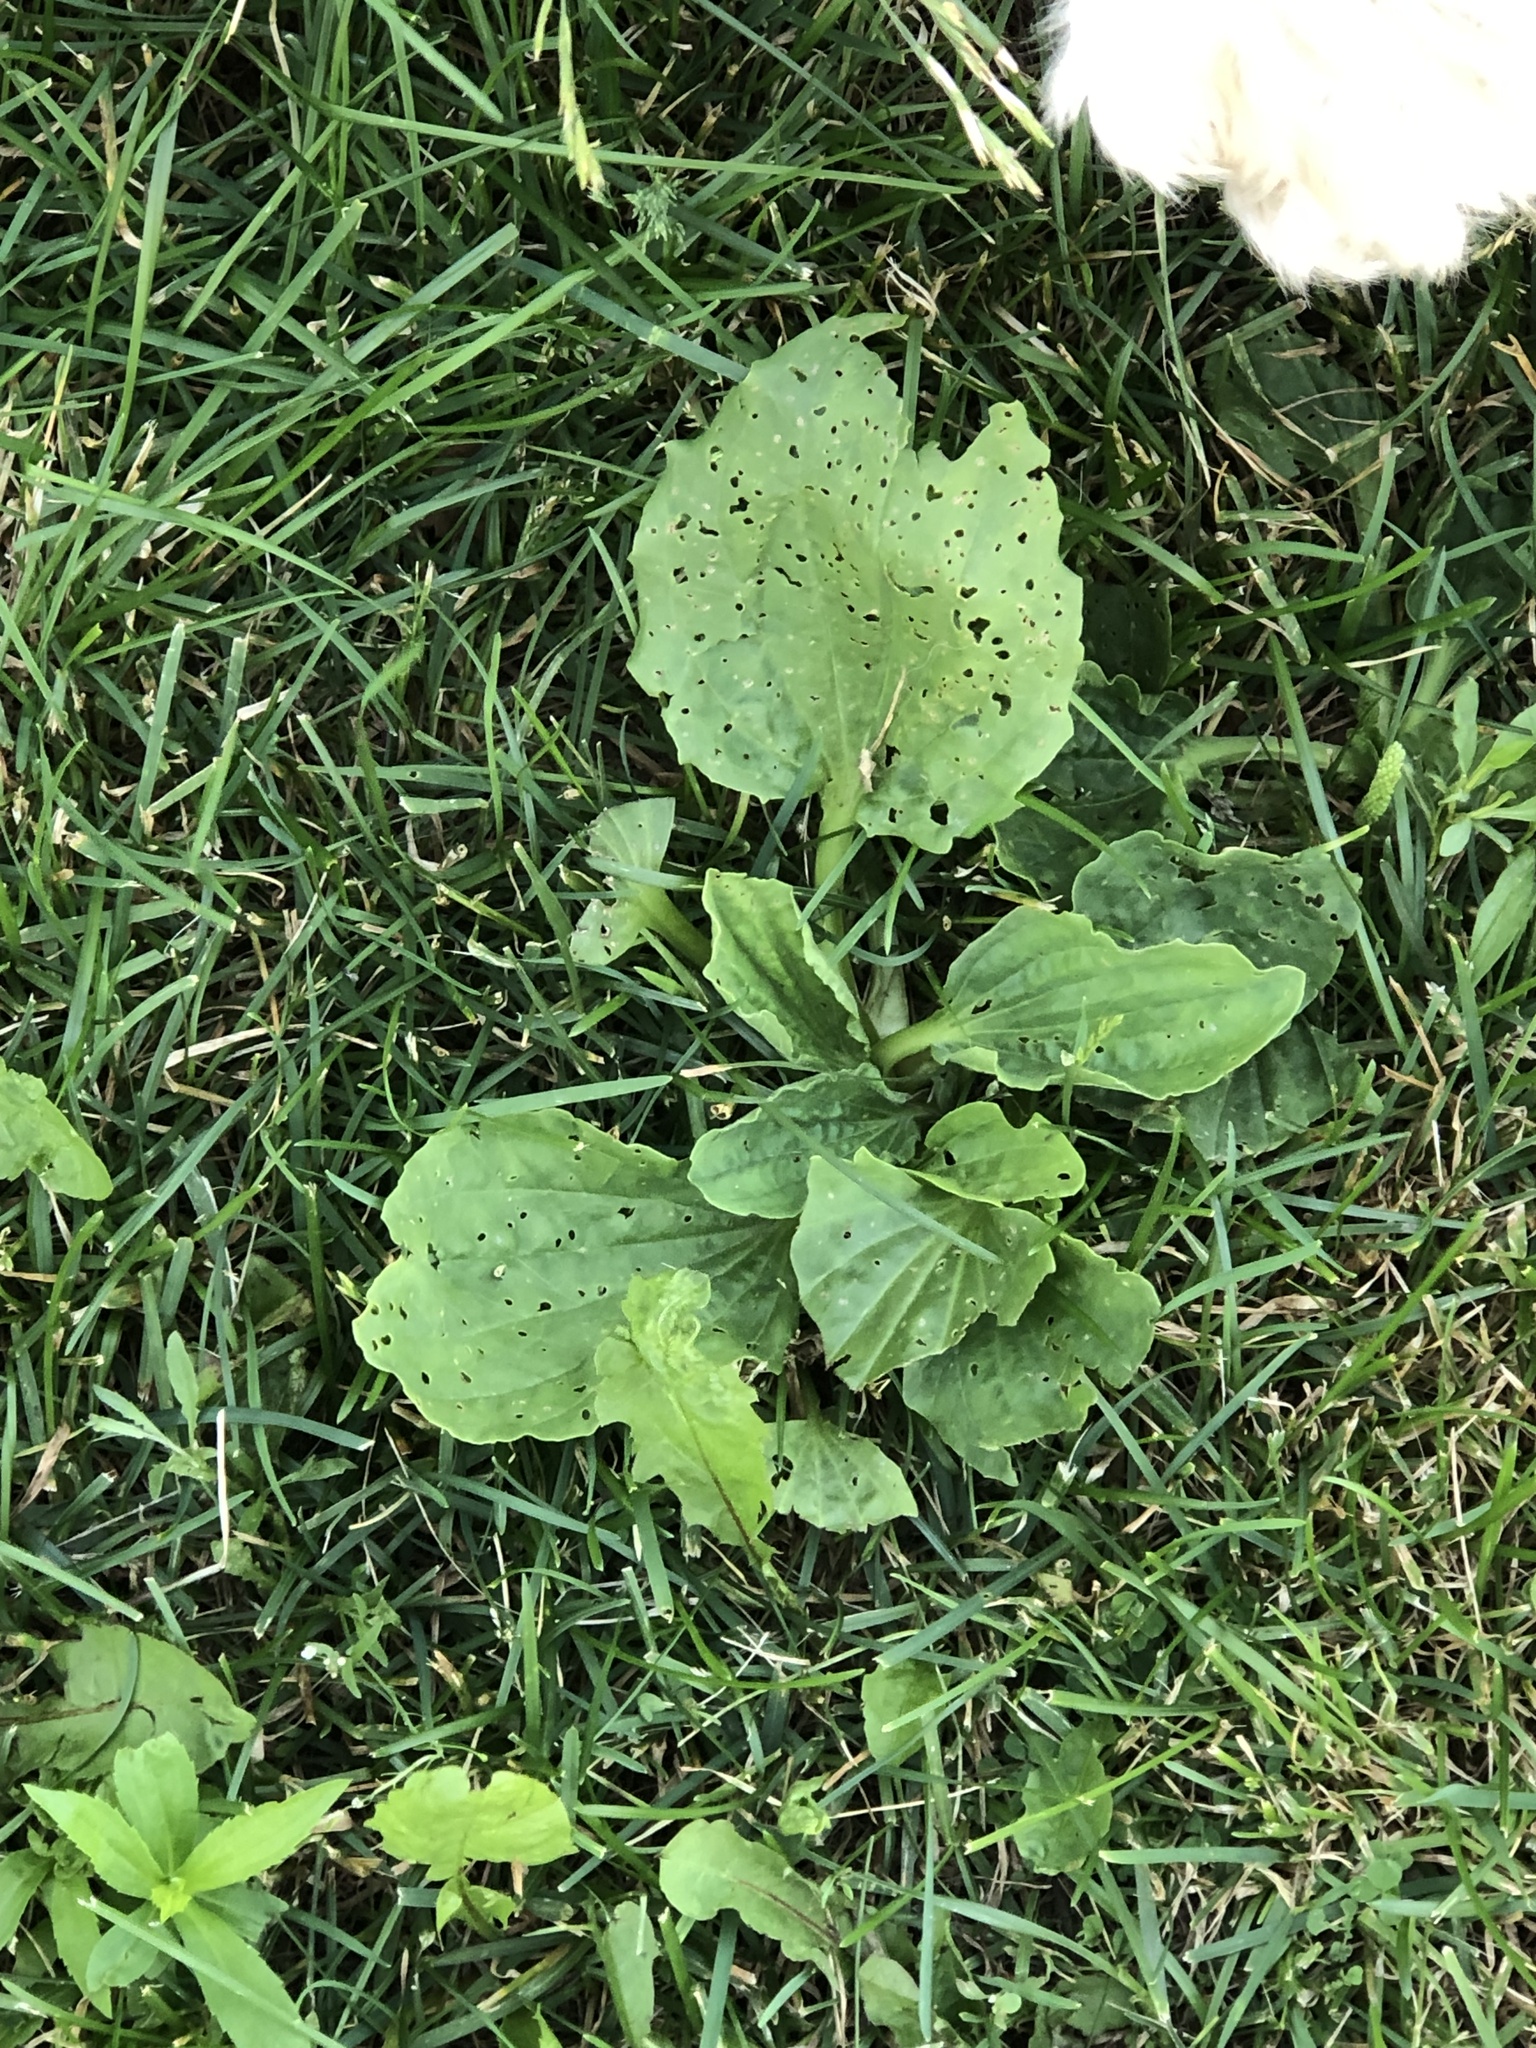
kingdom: Plantae
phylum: Tracheophyta
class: Magnoliopsida
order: Lamiales
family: Plantaginaceae
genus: Plantago
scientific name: Plantago major
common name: Common plantain
